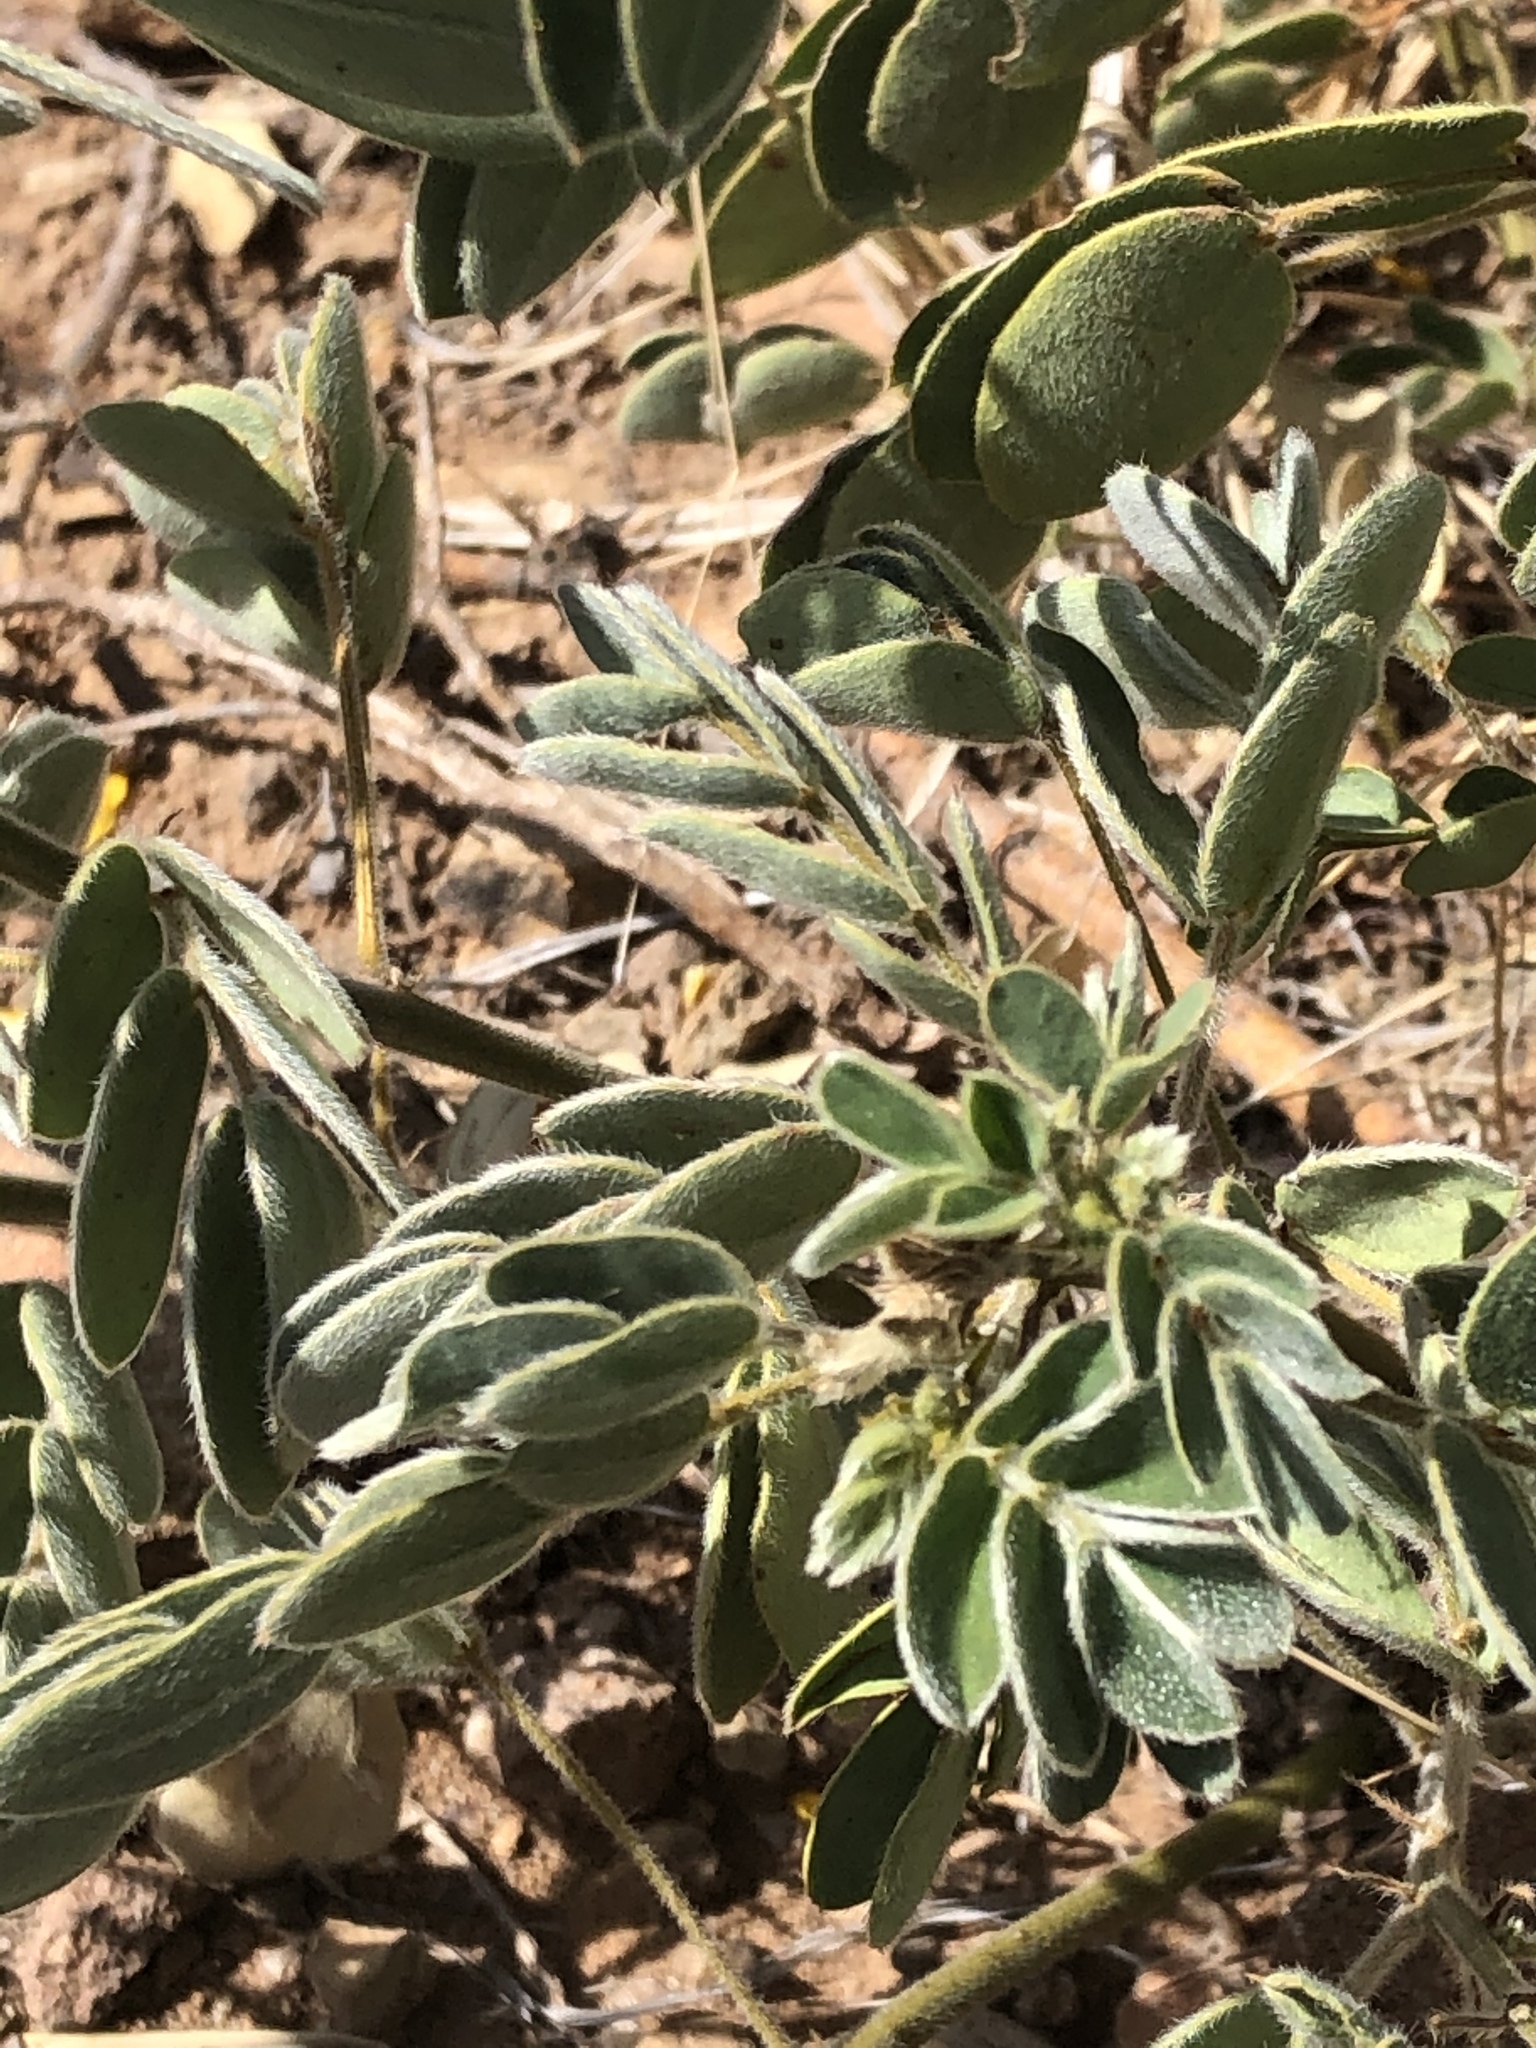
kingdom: Plantae
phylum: Tracheophyta
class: Magnoliopsida
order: Fabales
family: Fabaceae
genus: Senna
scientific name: Senna lindheimeriana
